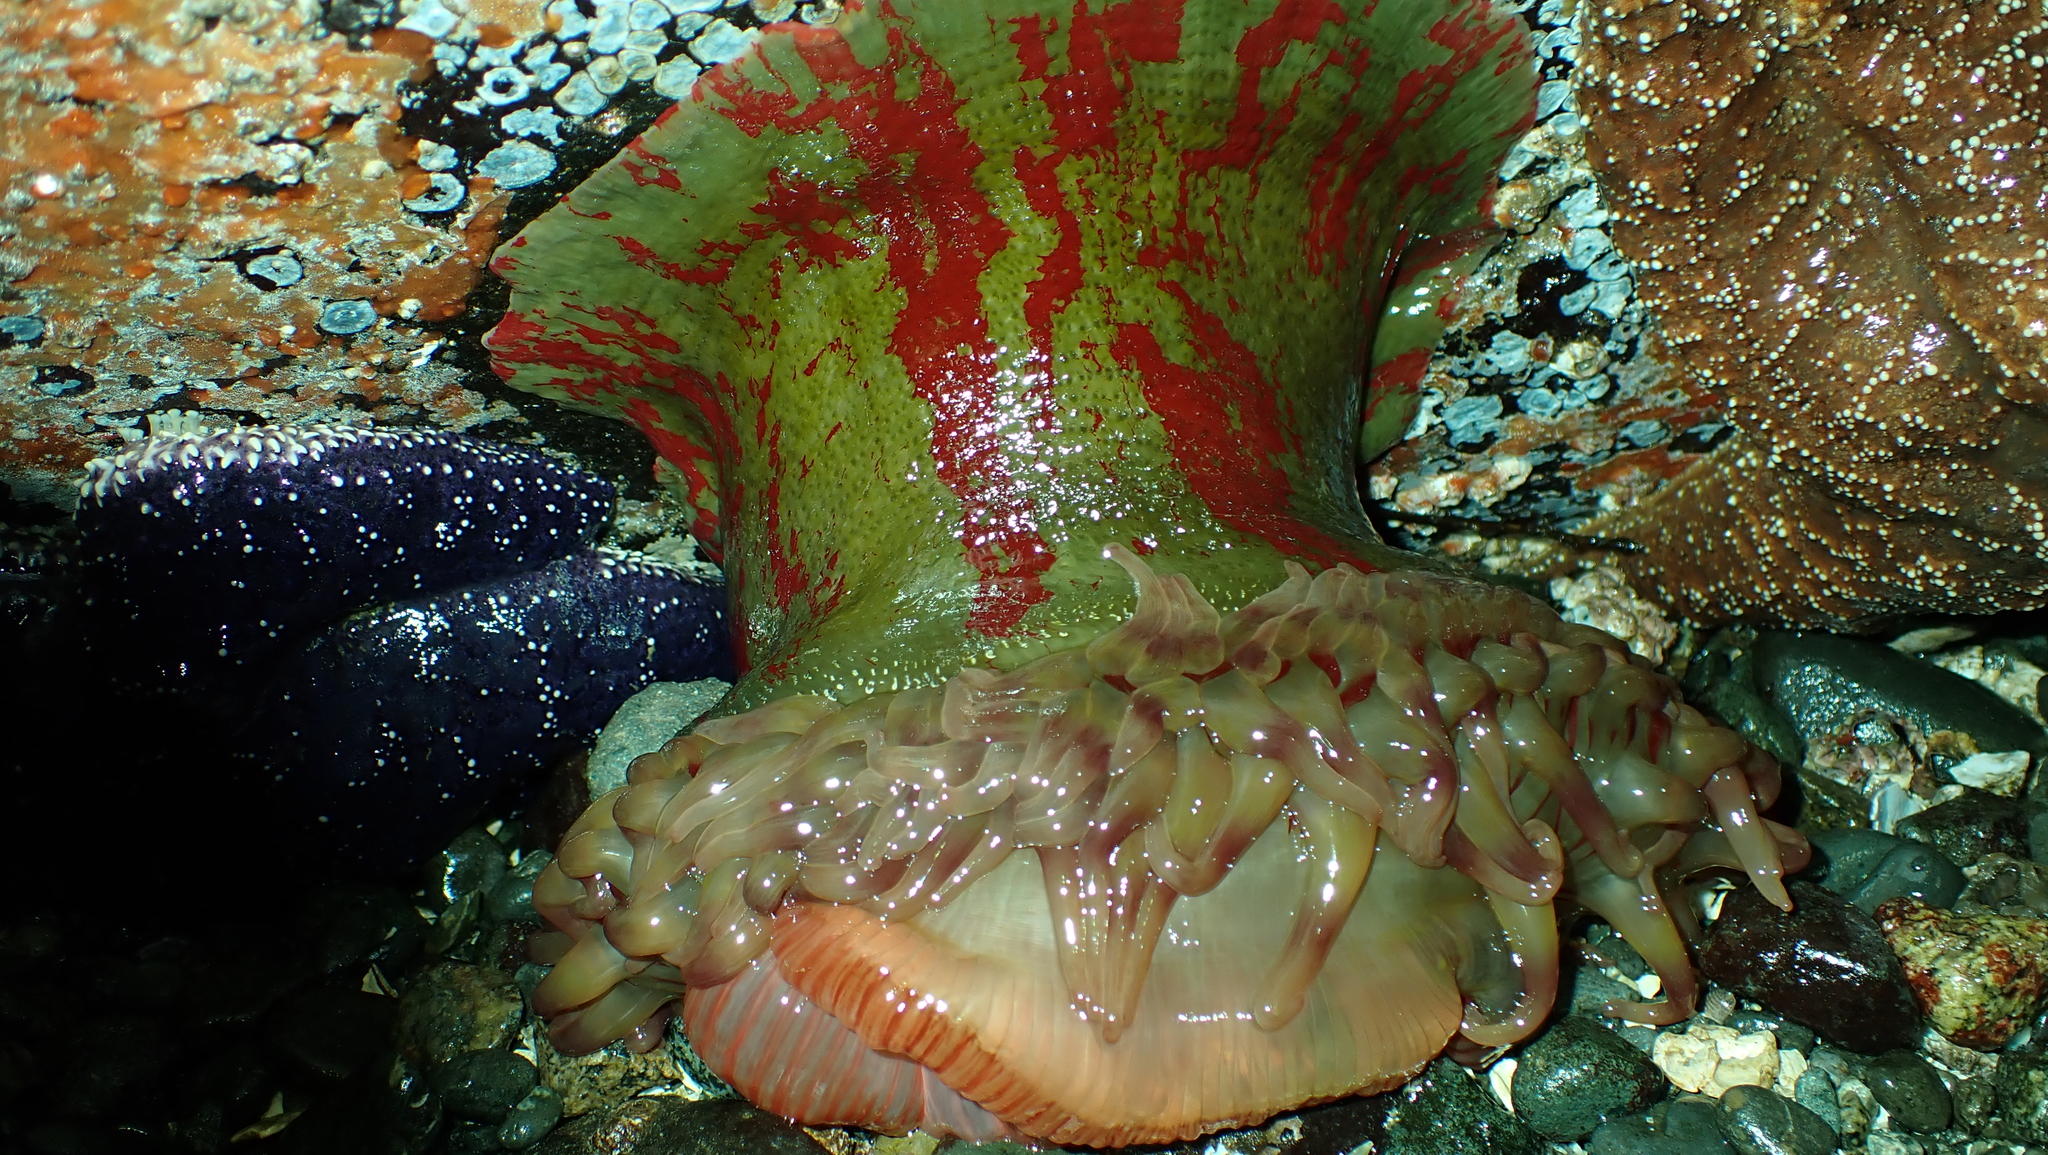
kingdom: Animalia
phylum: Cnidaria
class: Anthozoa
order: Actiniaria
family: Actiniidae
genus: Urticina
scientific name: Urticina grebelnyi
